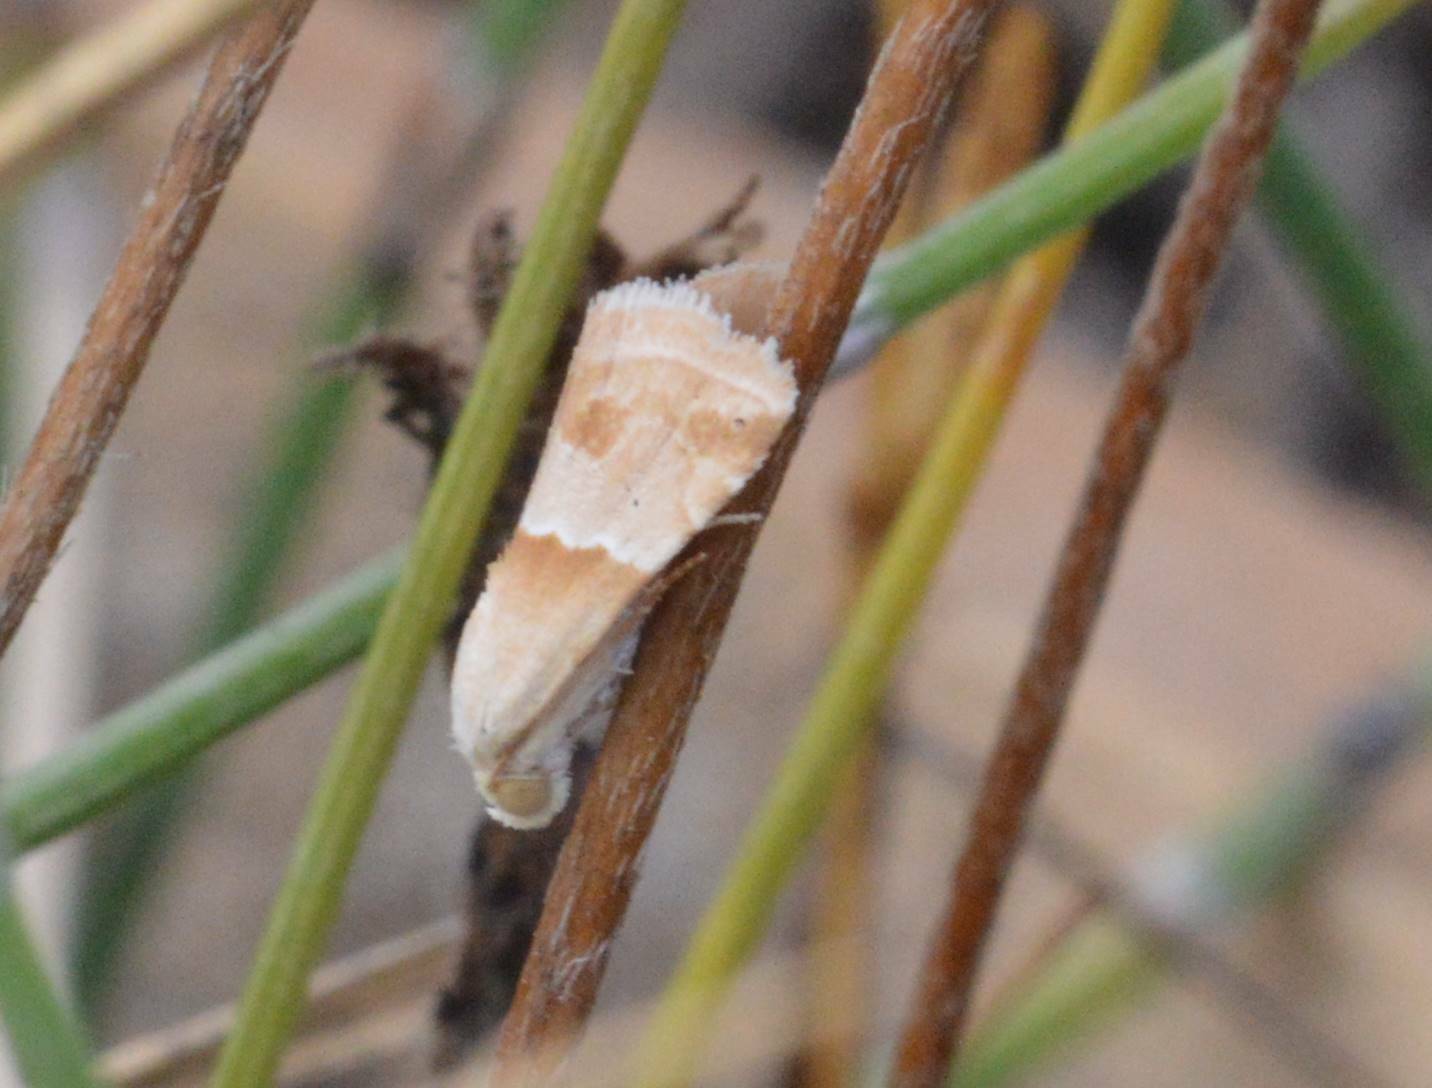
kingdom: Animalia
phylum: Arthropoda
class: Insecta
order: Lepidoptera
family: Noctuidae
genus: Eublemma
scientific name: Eublemma parva
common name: Small marbled
